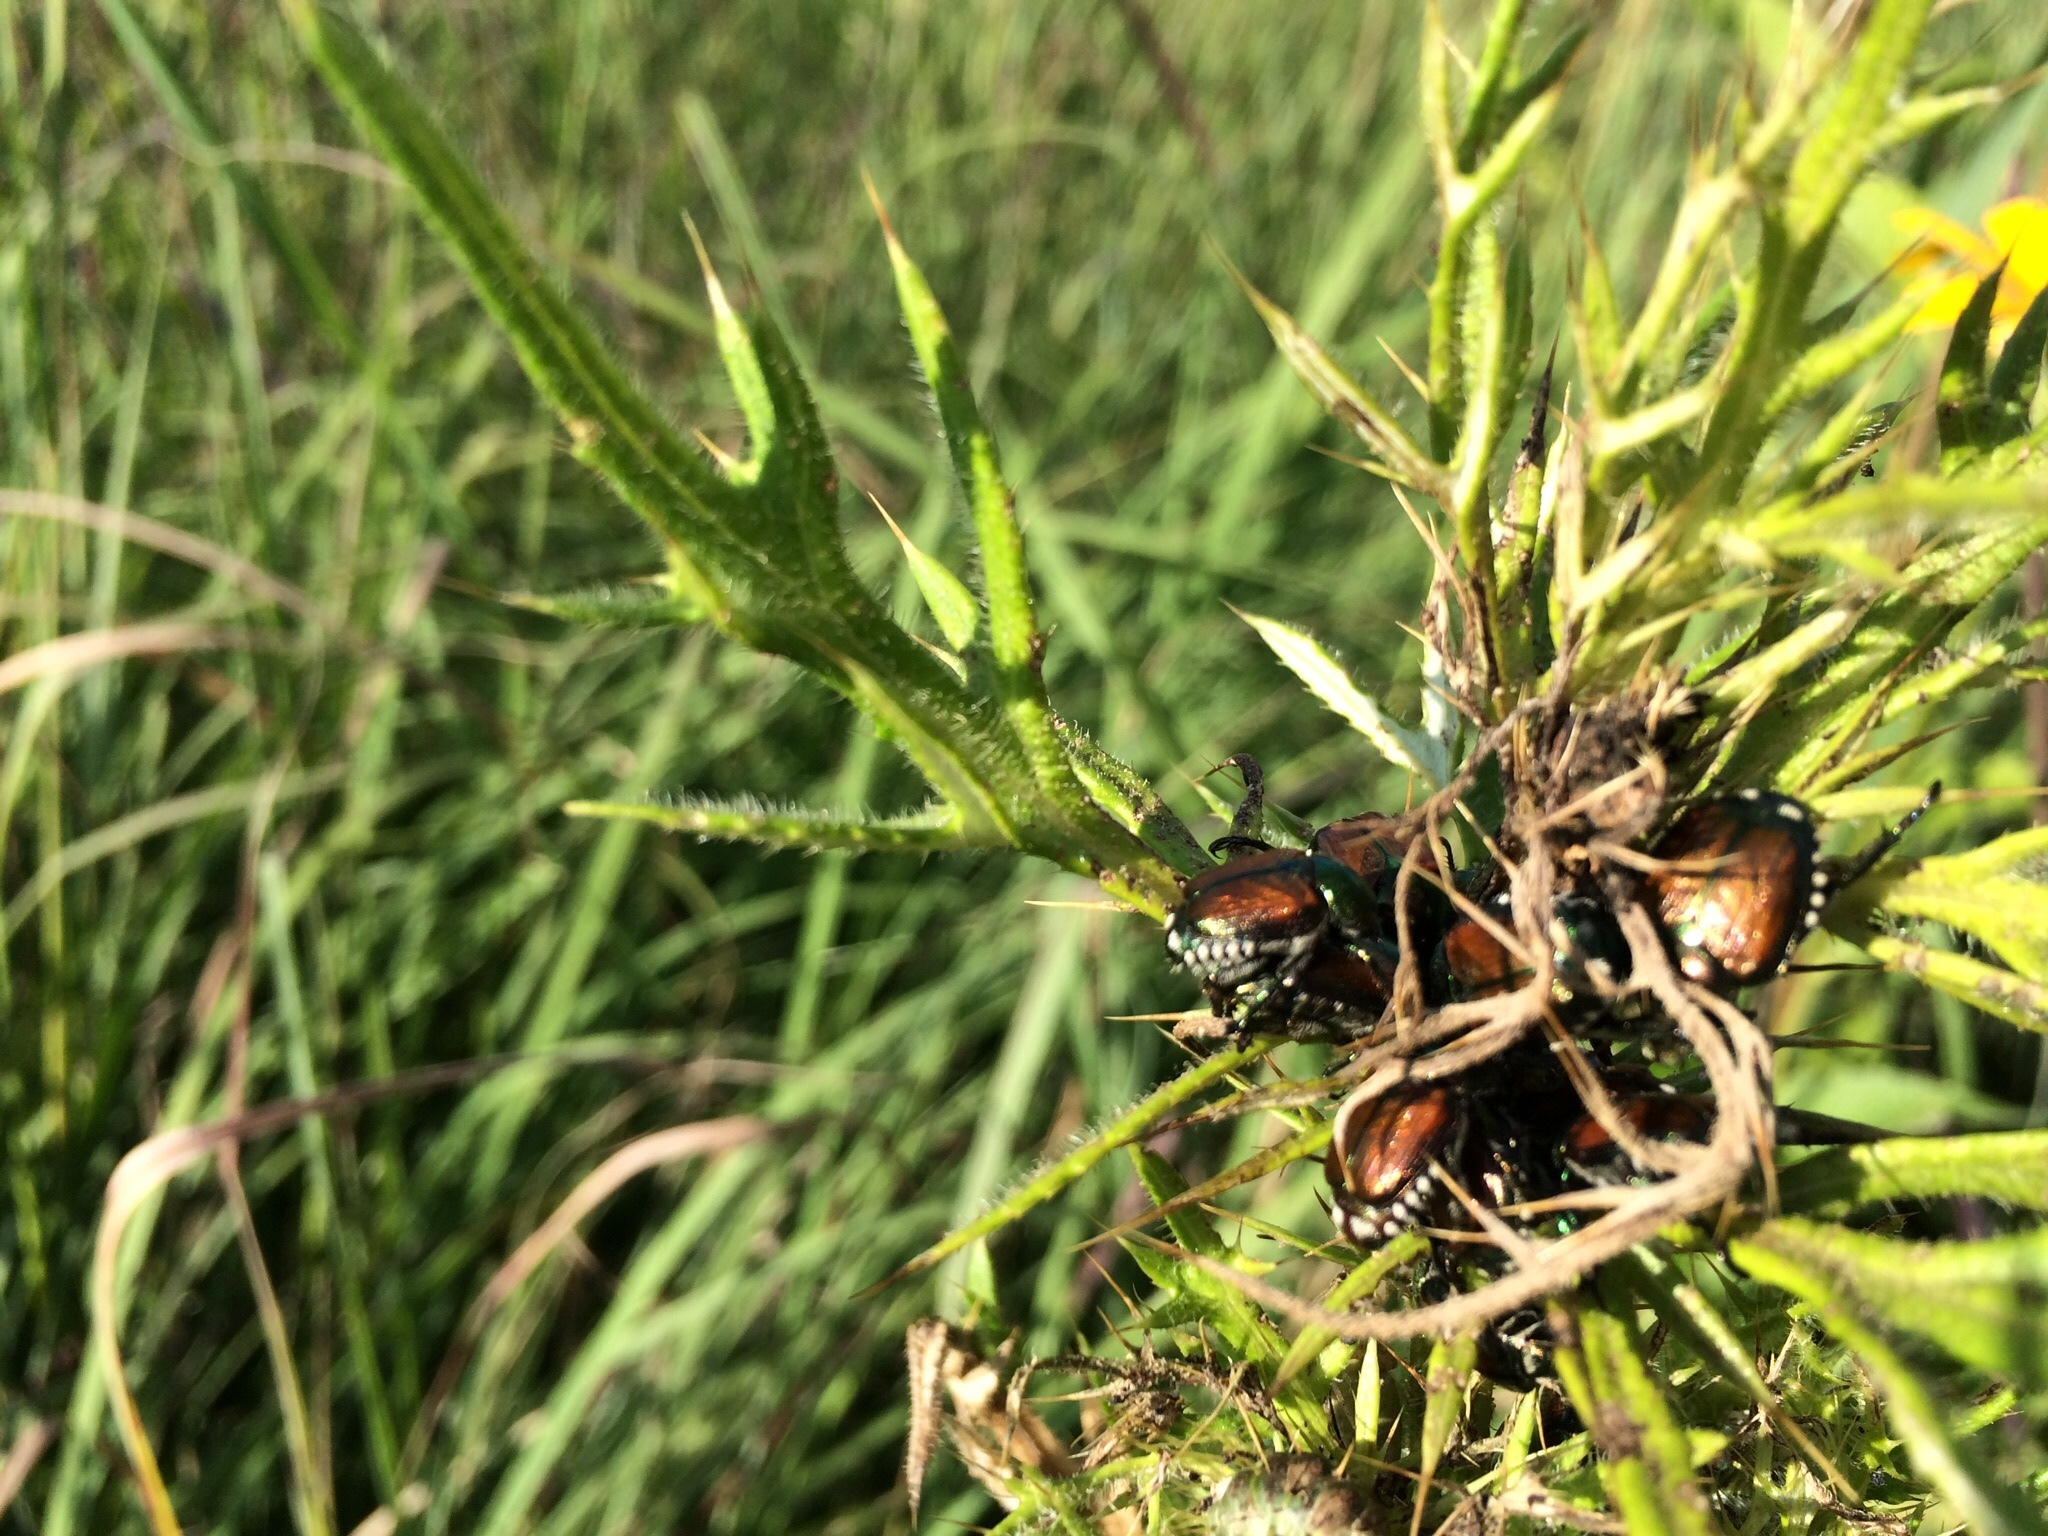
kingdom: Animalia
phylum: Arthropoda
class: Insecta
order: Coleoptera
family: Scarabaeidae
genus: Popillia
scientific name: Popillia japonica
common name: Japanese beetle
